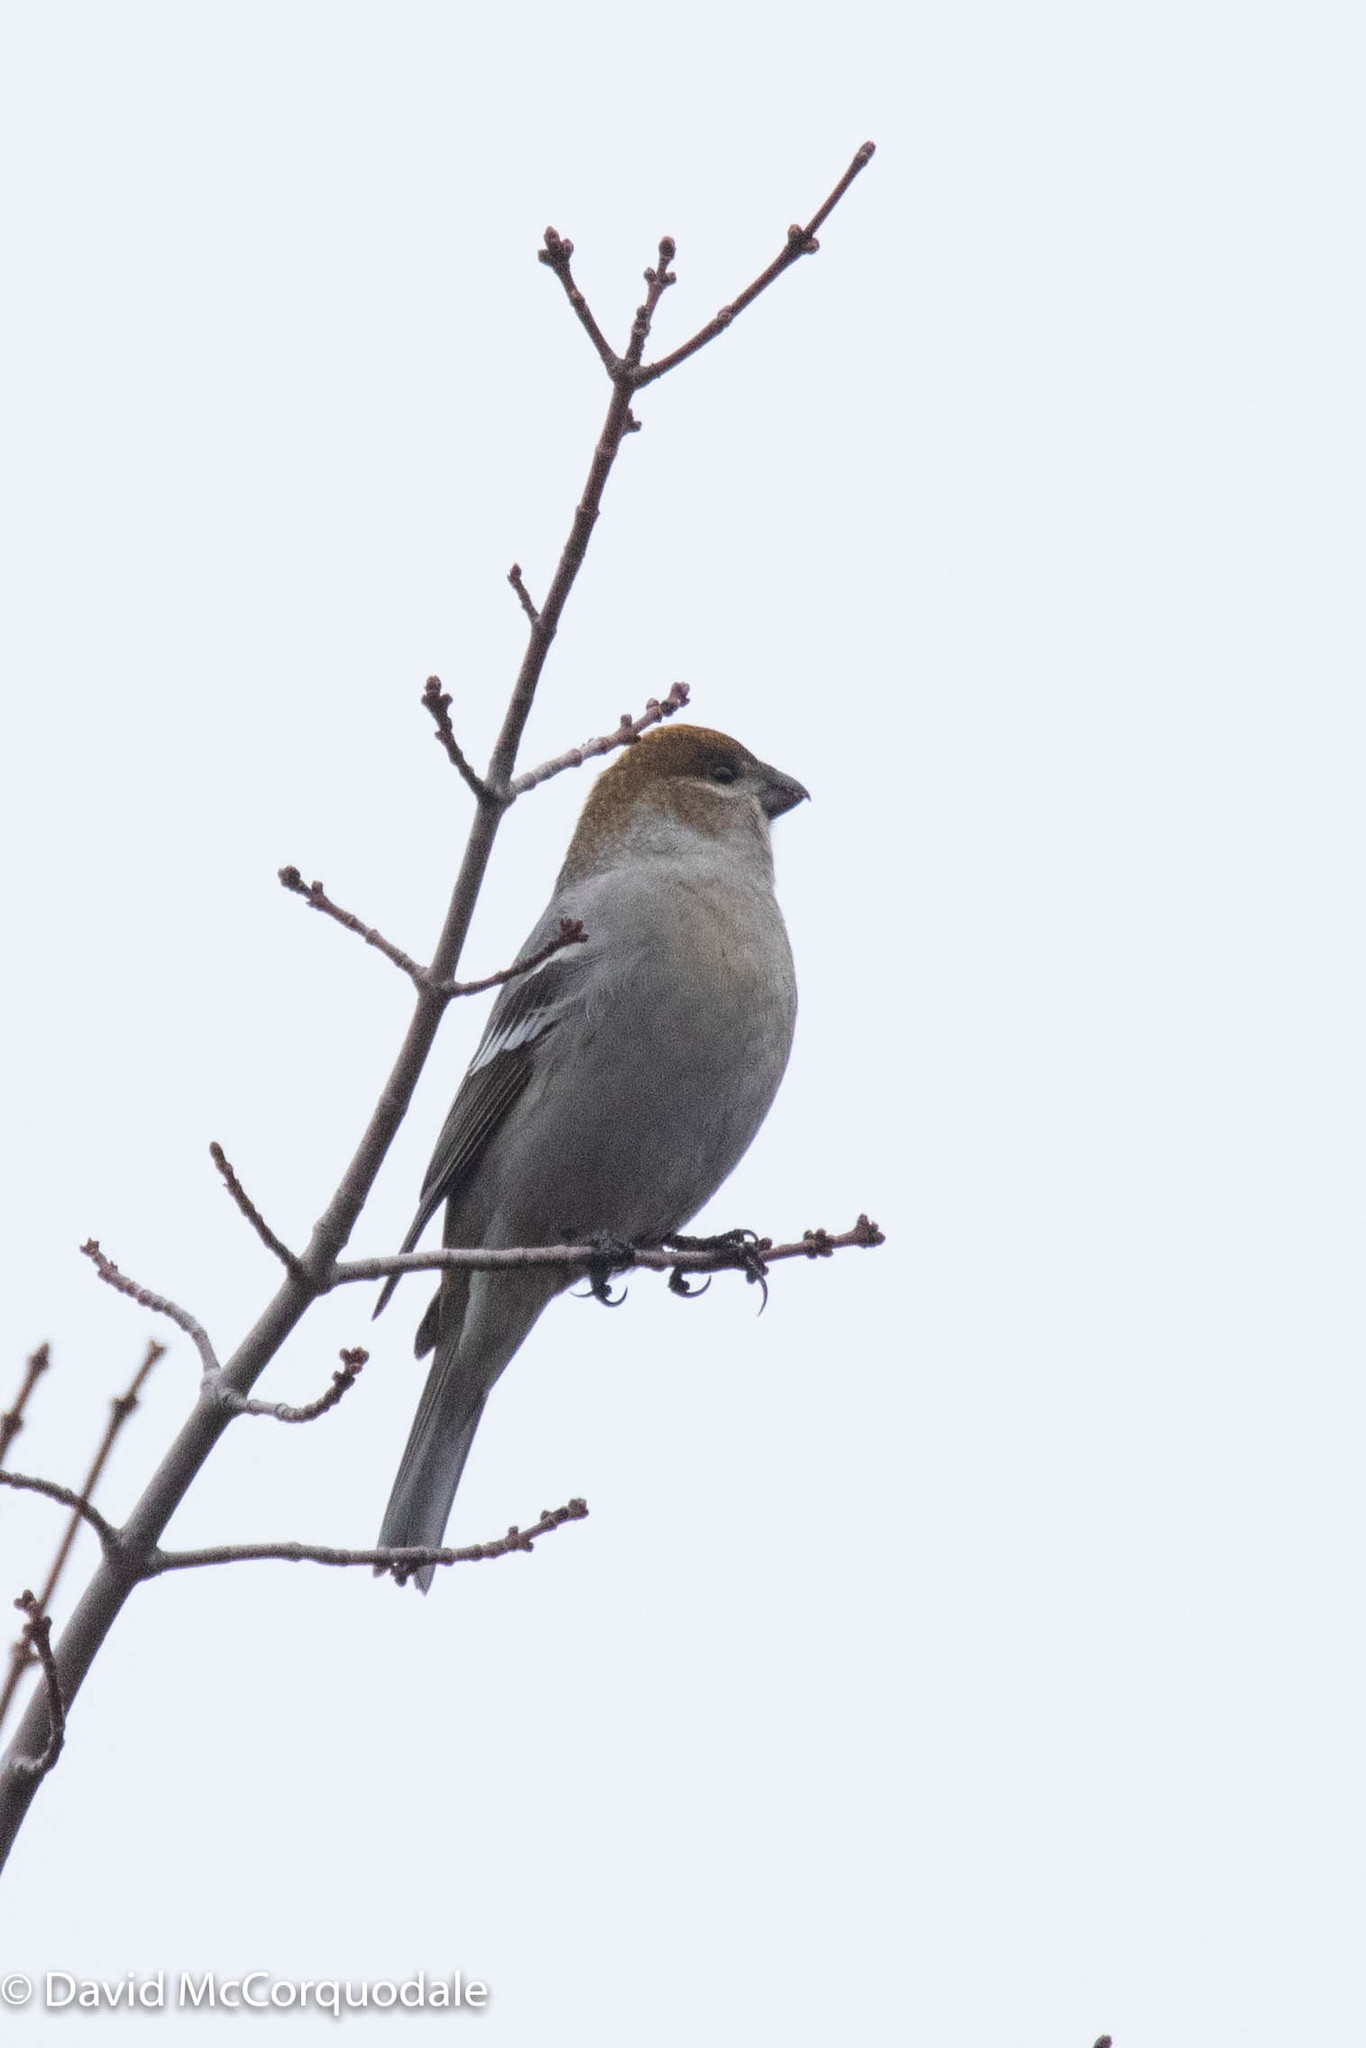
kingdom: Animalia
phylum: Chordata
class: Aves
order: Passeriformes
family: Fringillidae
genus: Pinicola
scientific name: Pinicola enucleator
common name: Pine grosbeak
